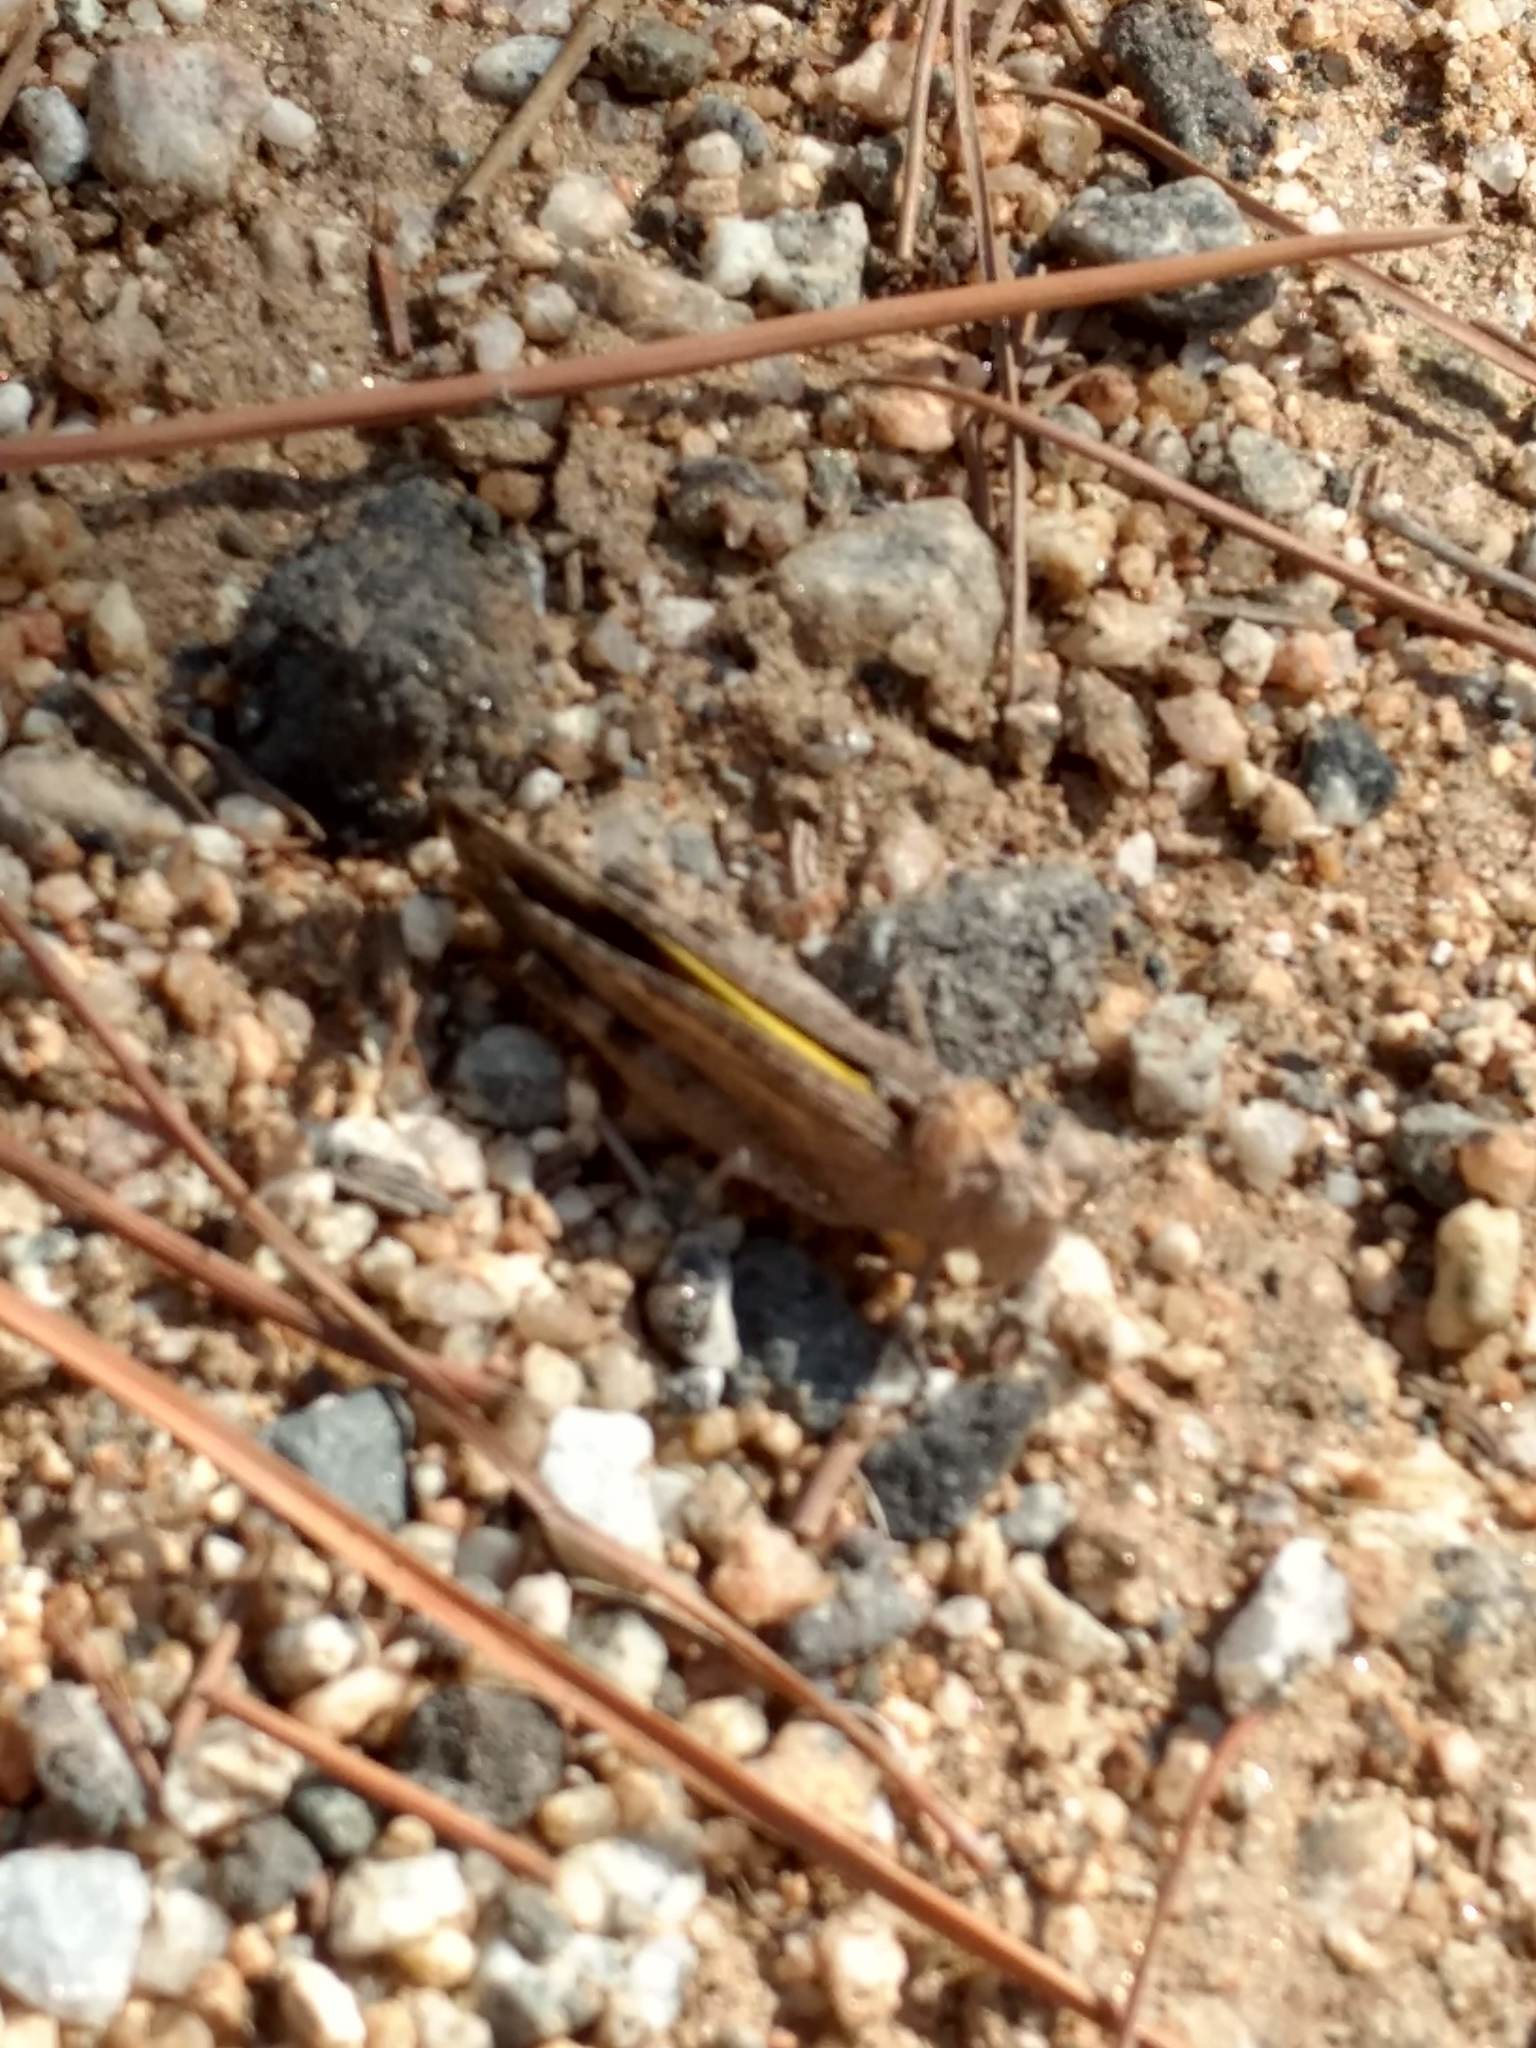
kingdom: Animalia
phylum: Arthropoda
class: Insecta
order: Orthoptera
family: Acrididae
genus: Lactista
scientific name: Lactista gibbosus
